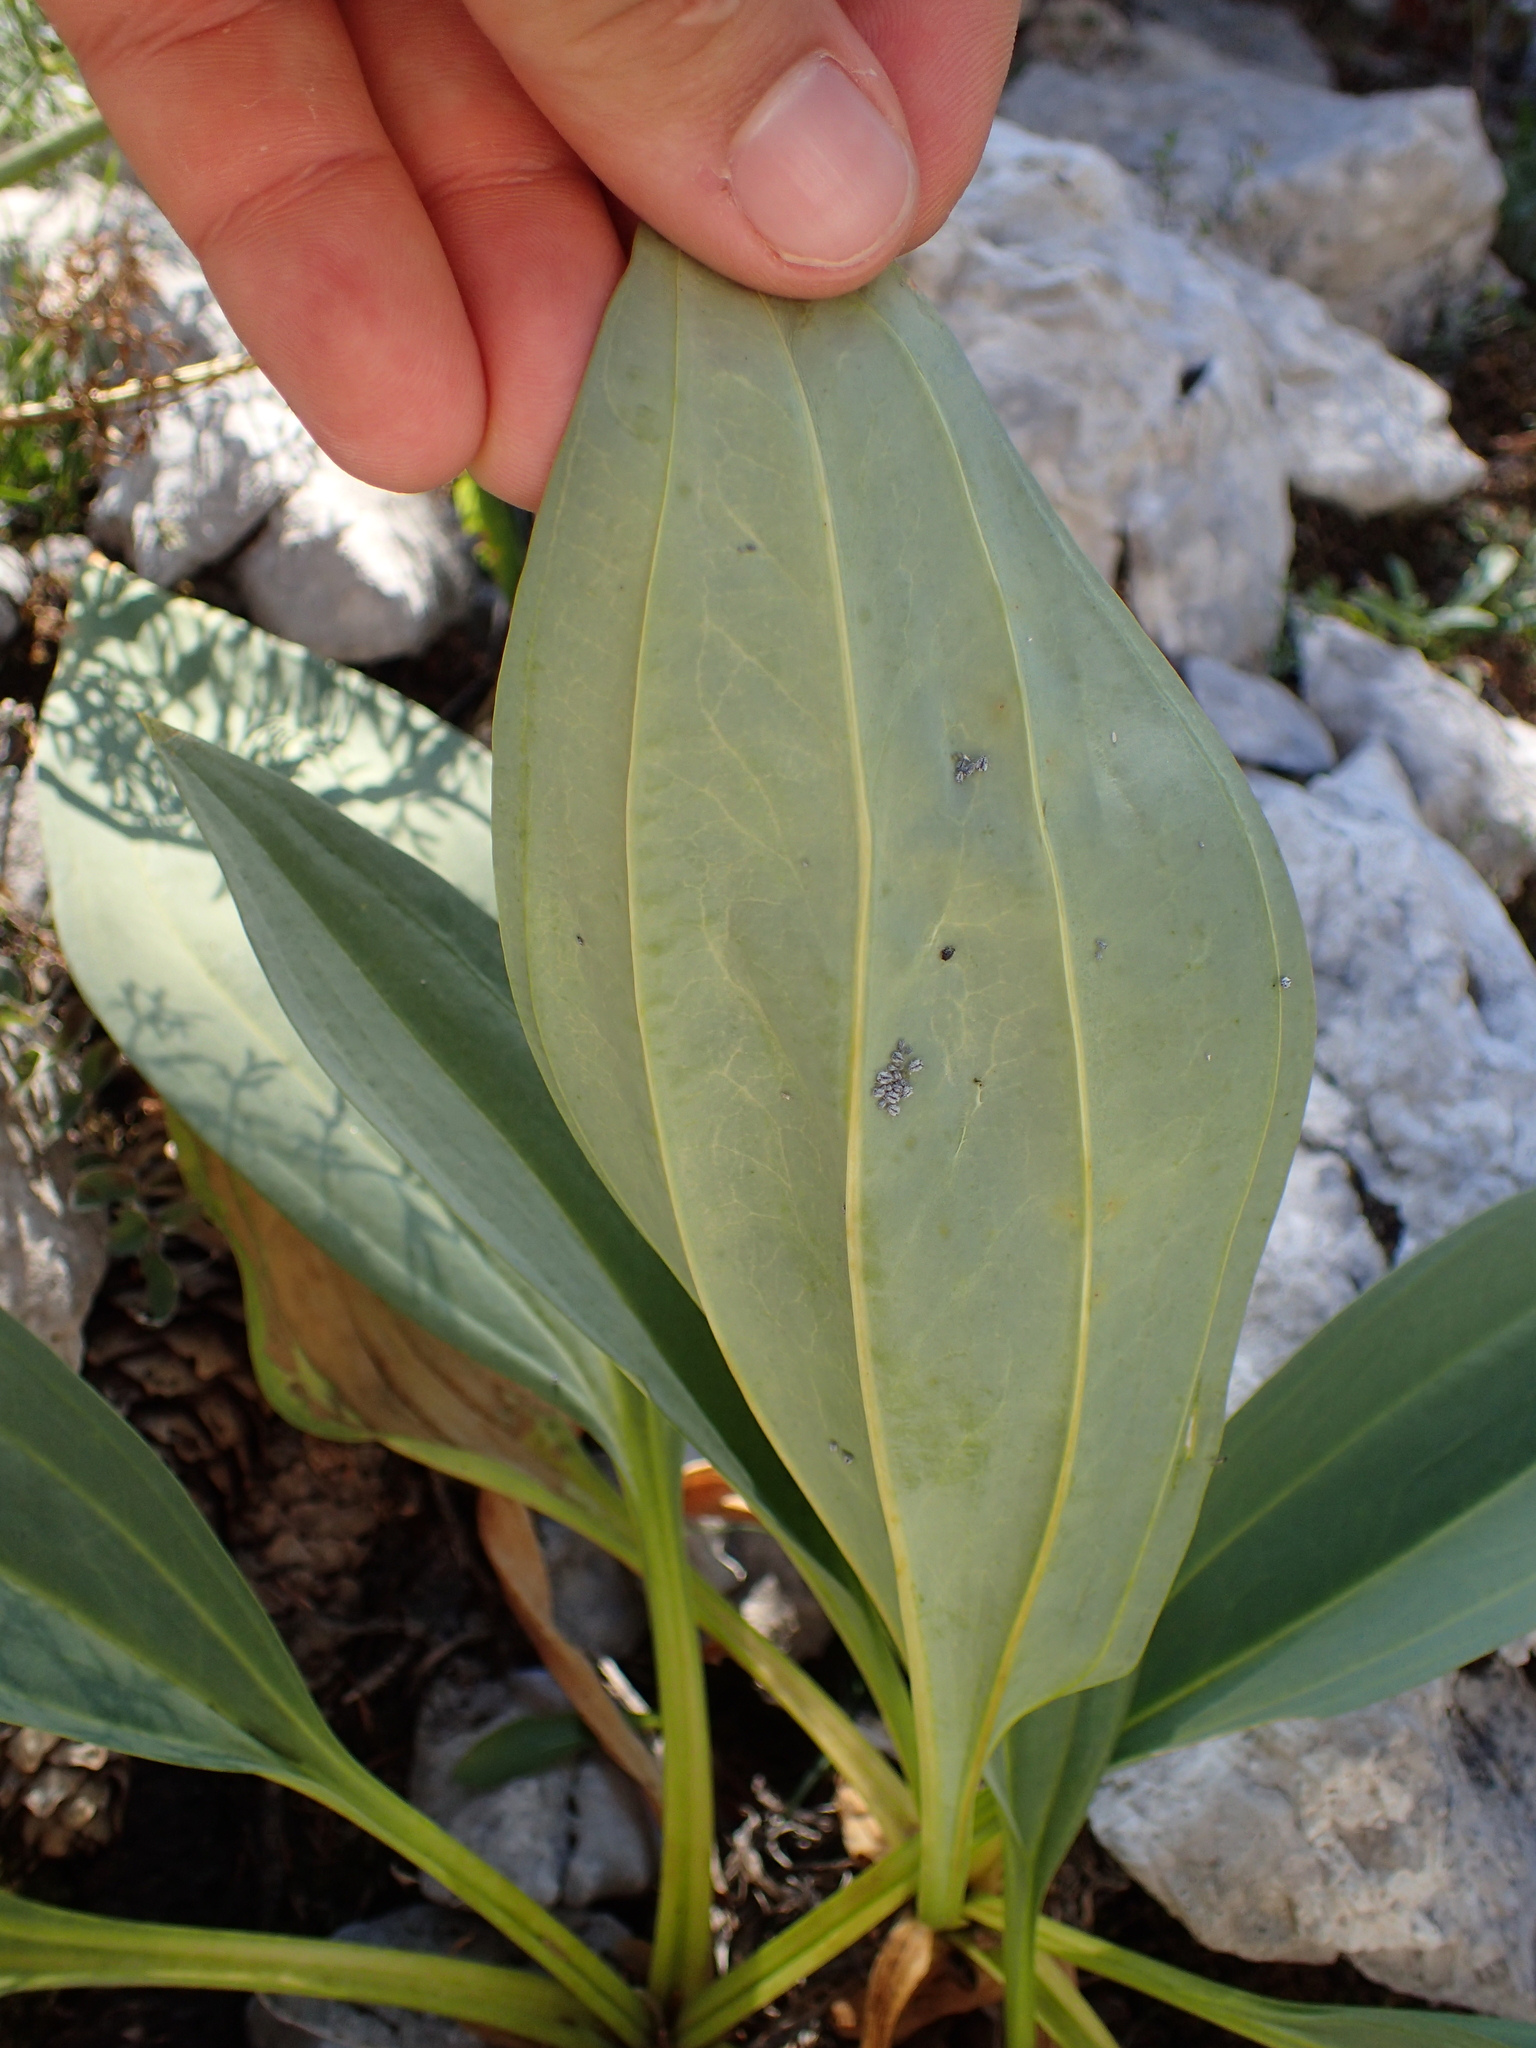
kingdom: Plantae
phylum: Tracheophyta
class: Magnoliopsida
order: Gentianales
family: Gentianaceae
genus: Gentiana
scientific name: Gentiana lutea
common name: Great yellow gentian
